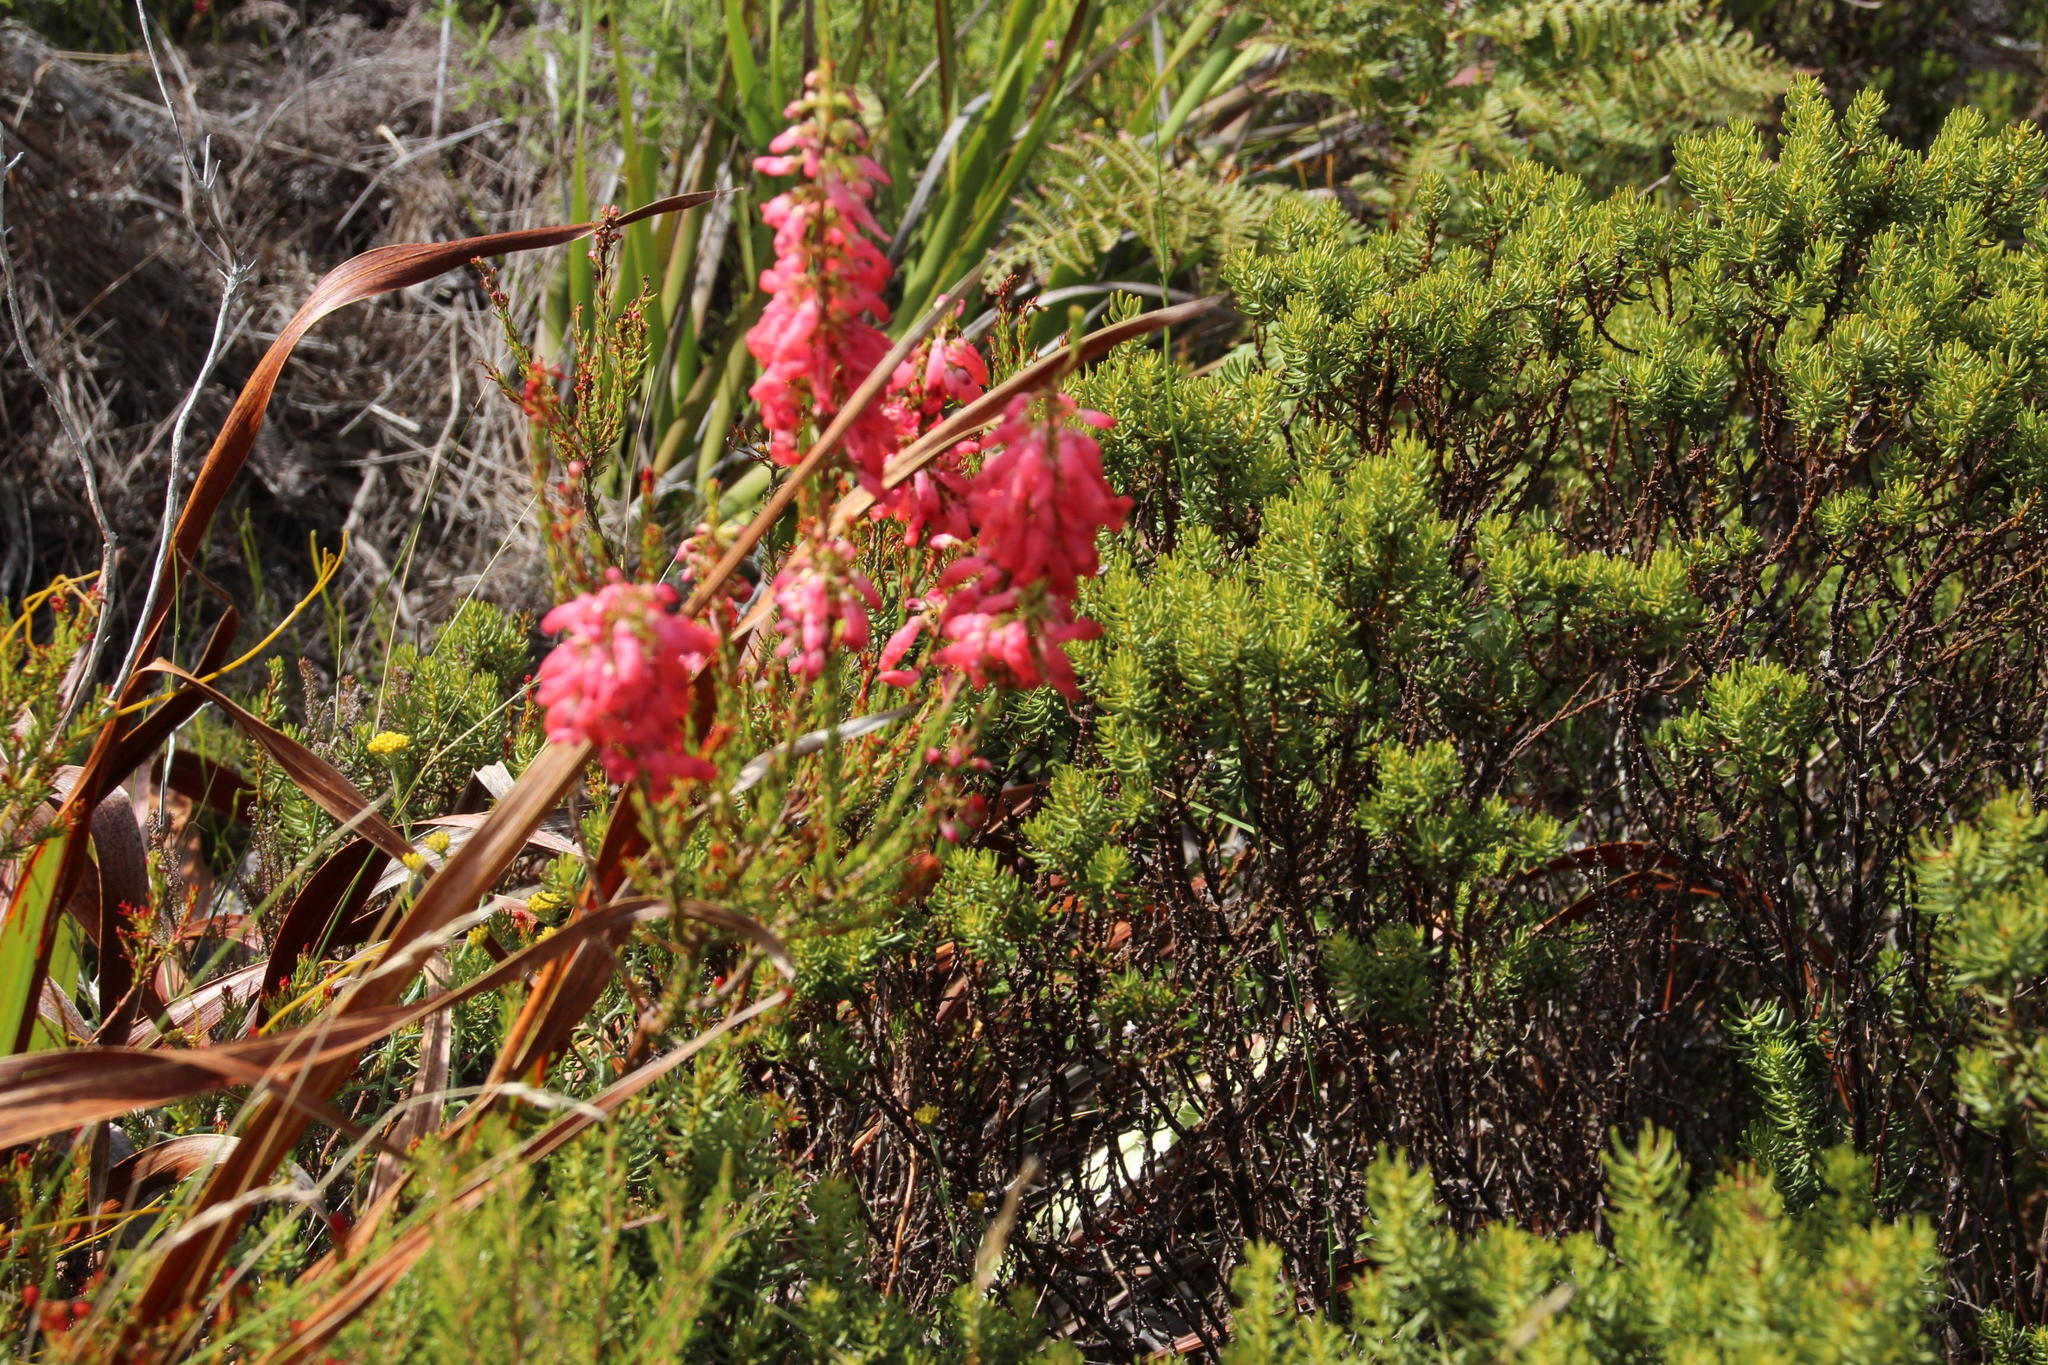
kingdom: Plantae
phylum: Tracheophyta
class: Magnoliopsida
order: Ericales
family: Ericaceae
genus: Erica
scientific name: Erica mammosa
